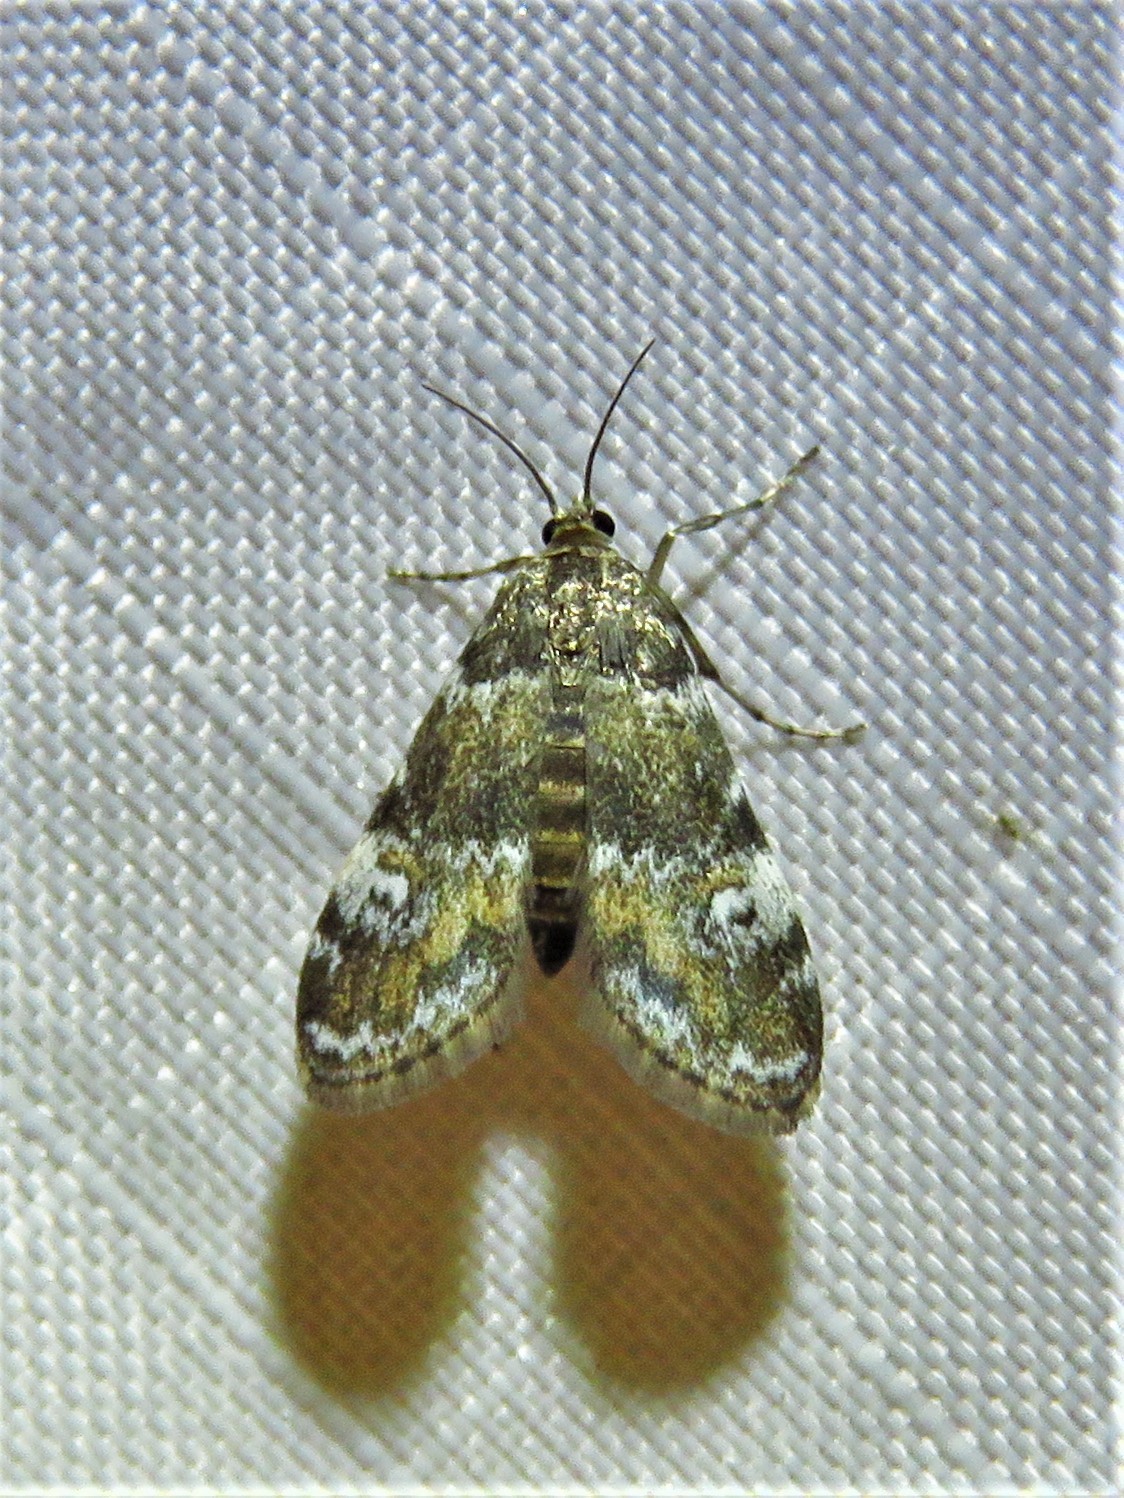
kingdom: Animalia
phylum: Arthropoda
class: Insecta
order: Lepidoptera
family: Crambidae
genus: Elophila
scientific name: Elophila obliteralis
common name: Waterlily leafcutter moth
